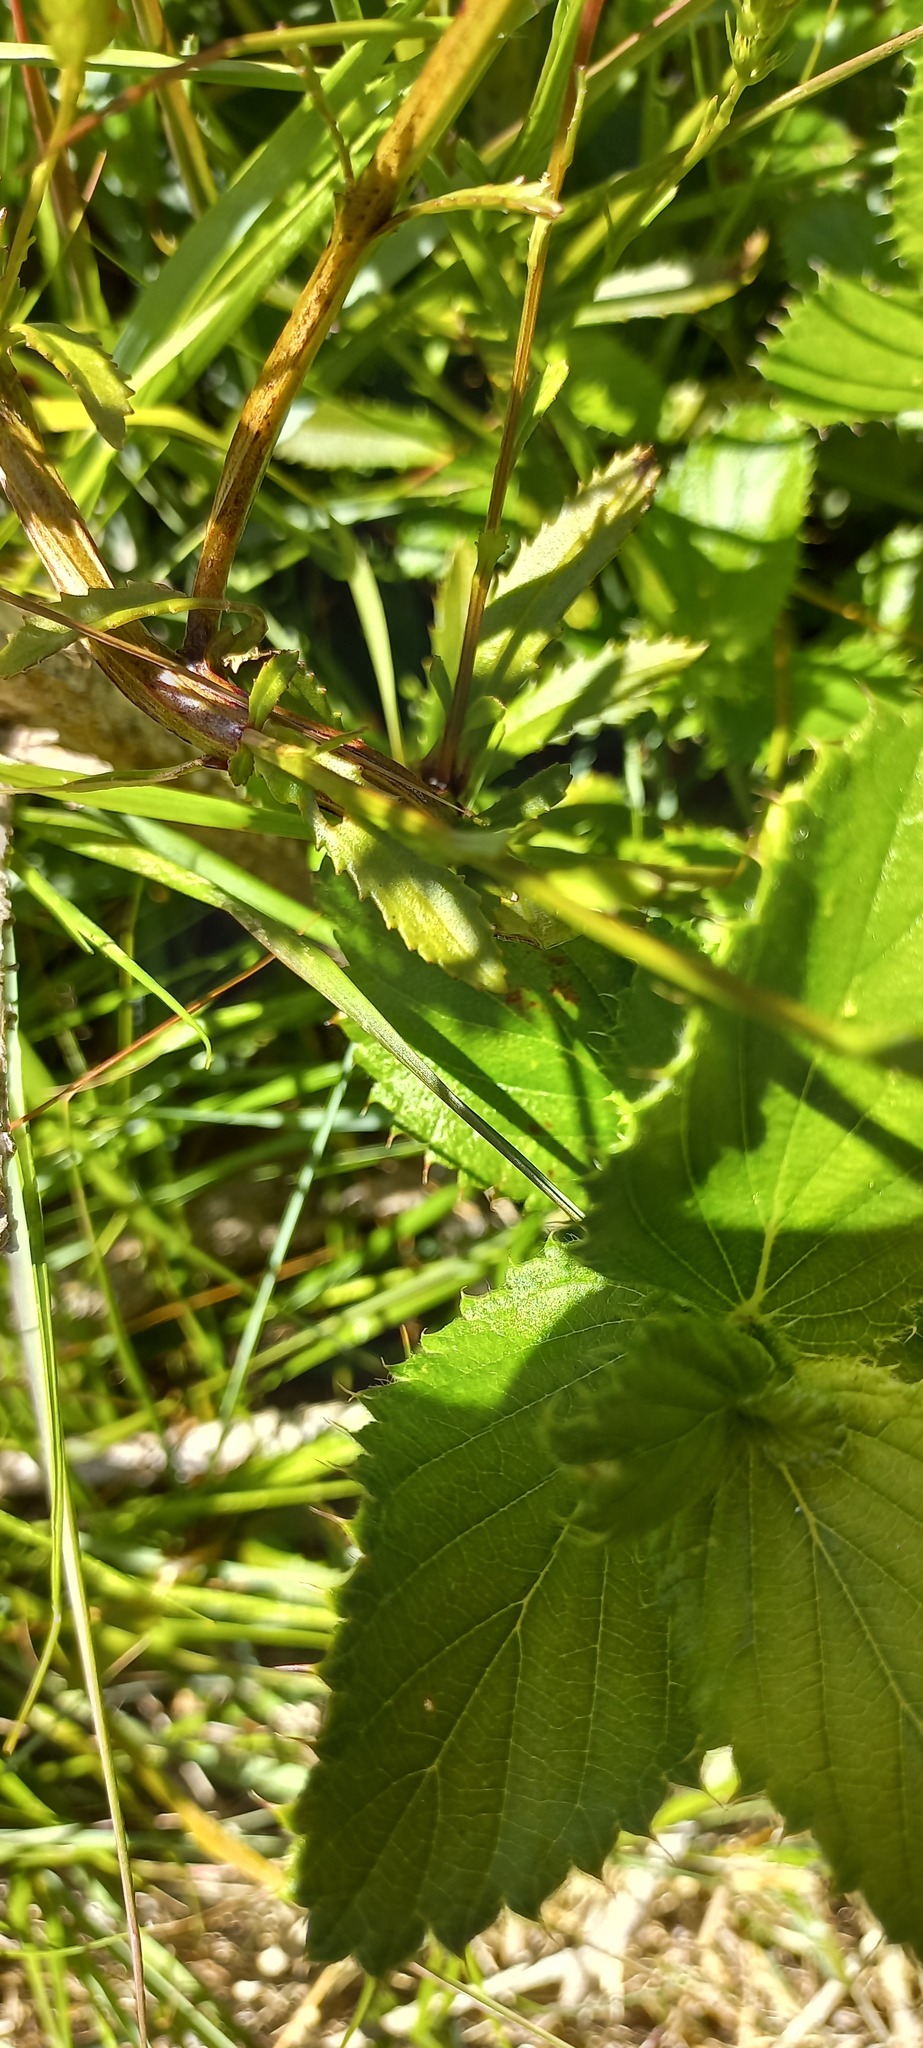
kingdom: Plantae
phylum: Tracheophyta
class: Magnoliopsida
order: Lamiales
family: Scrophulariaceae
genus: Pseudoselago
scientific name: Pseudoselago spuria
